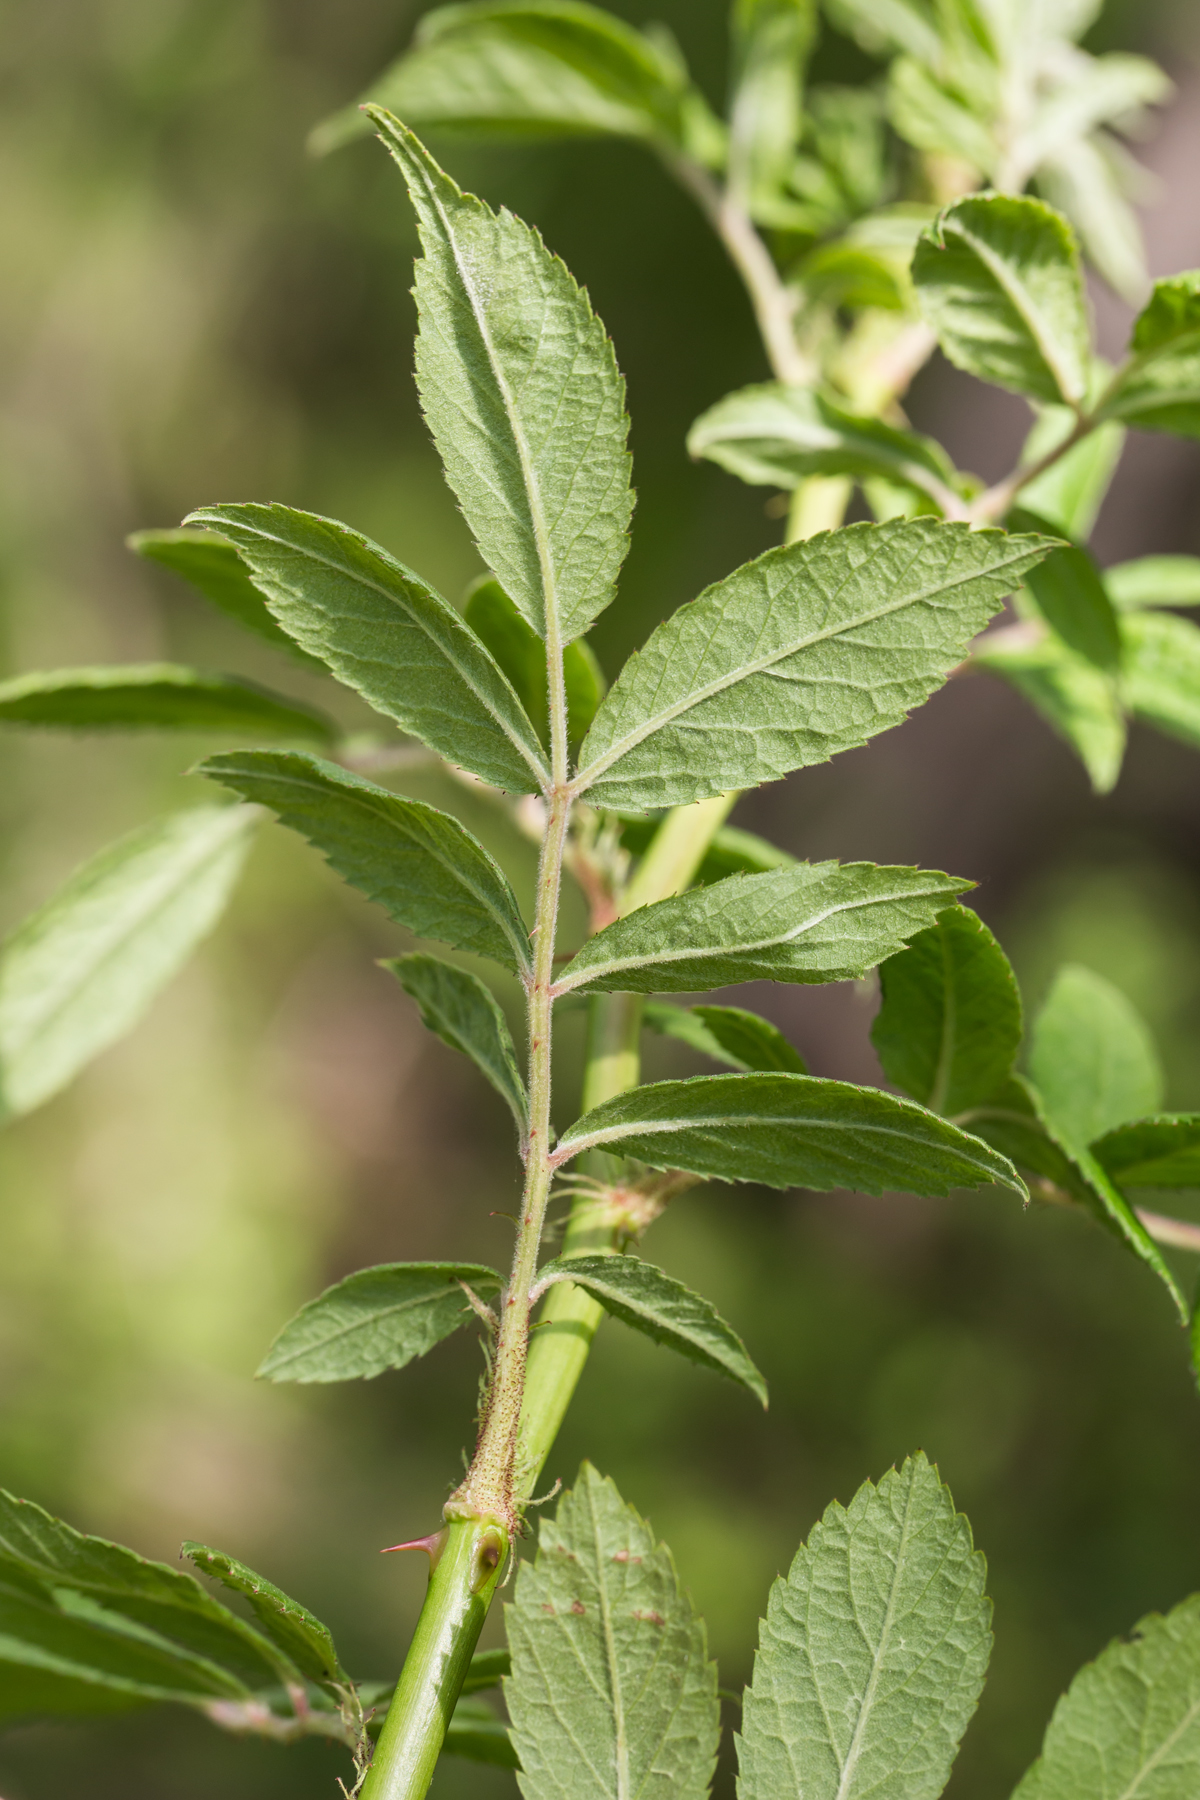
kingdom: Plantae
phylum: Tracheophyta
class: Magnoliopsida
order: Rosales
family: Rosaceae
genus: Rosa
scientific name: Rosa multiflora
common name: Multiflora rose
